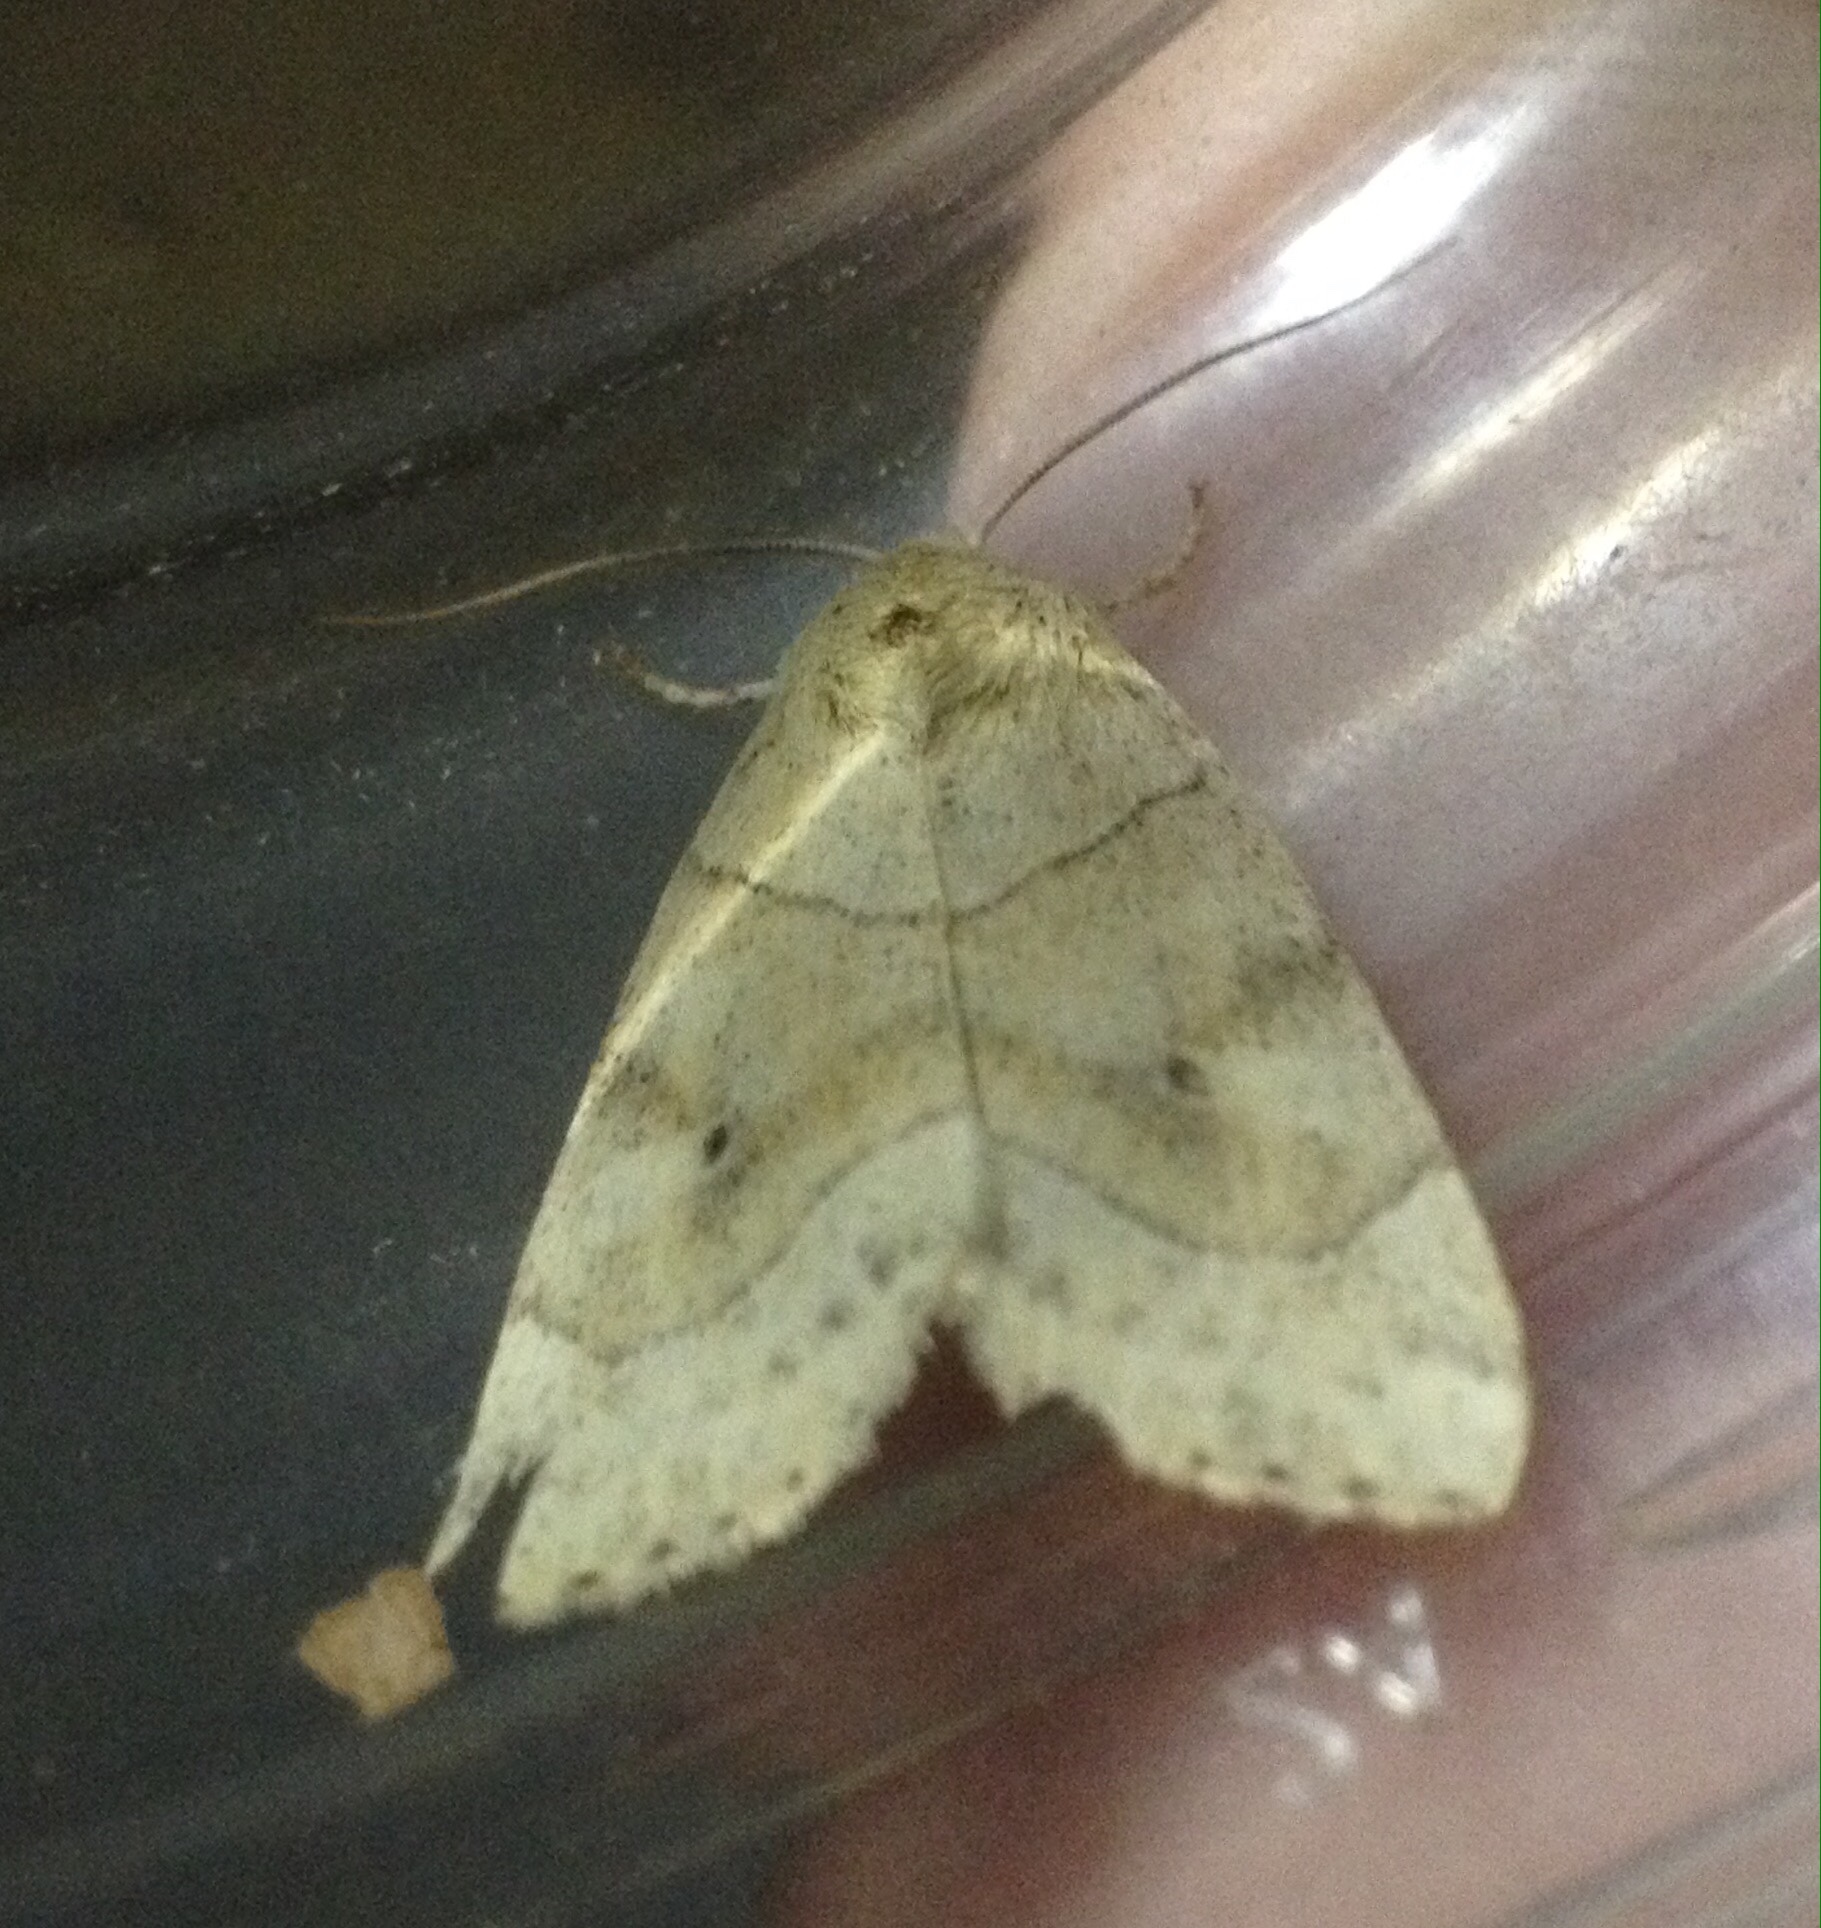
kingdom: Animalia
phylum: Arthropoda
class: Insecta
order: Lepidoptera
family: Noctuidae
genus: Cosmia
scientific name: Cosmia trapezina
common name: Dun-bar
